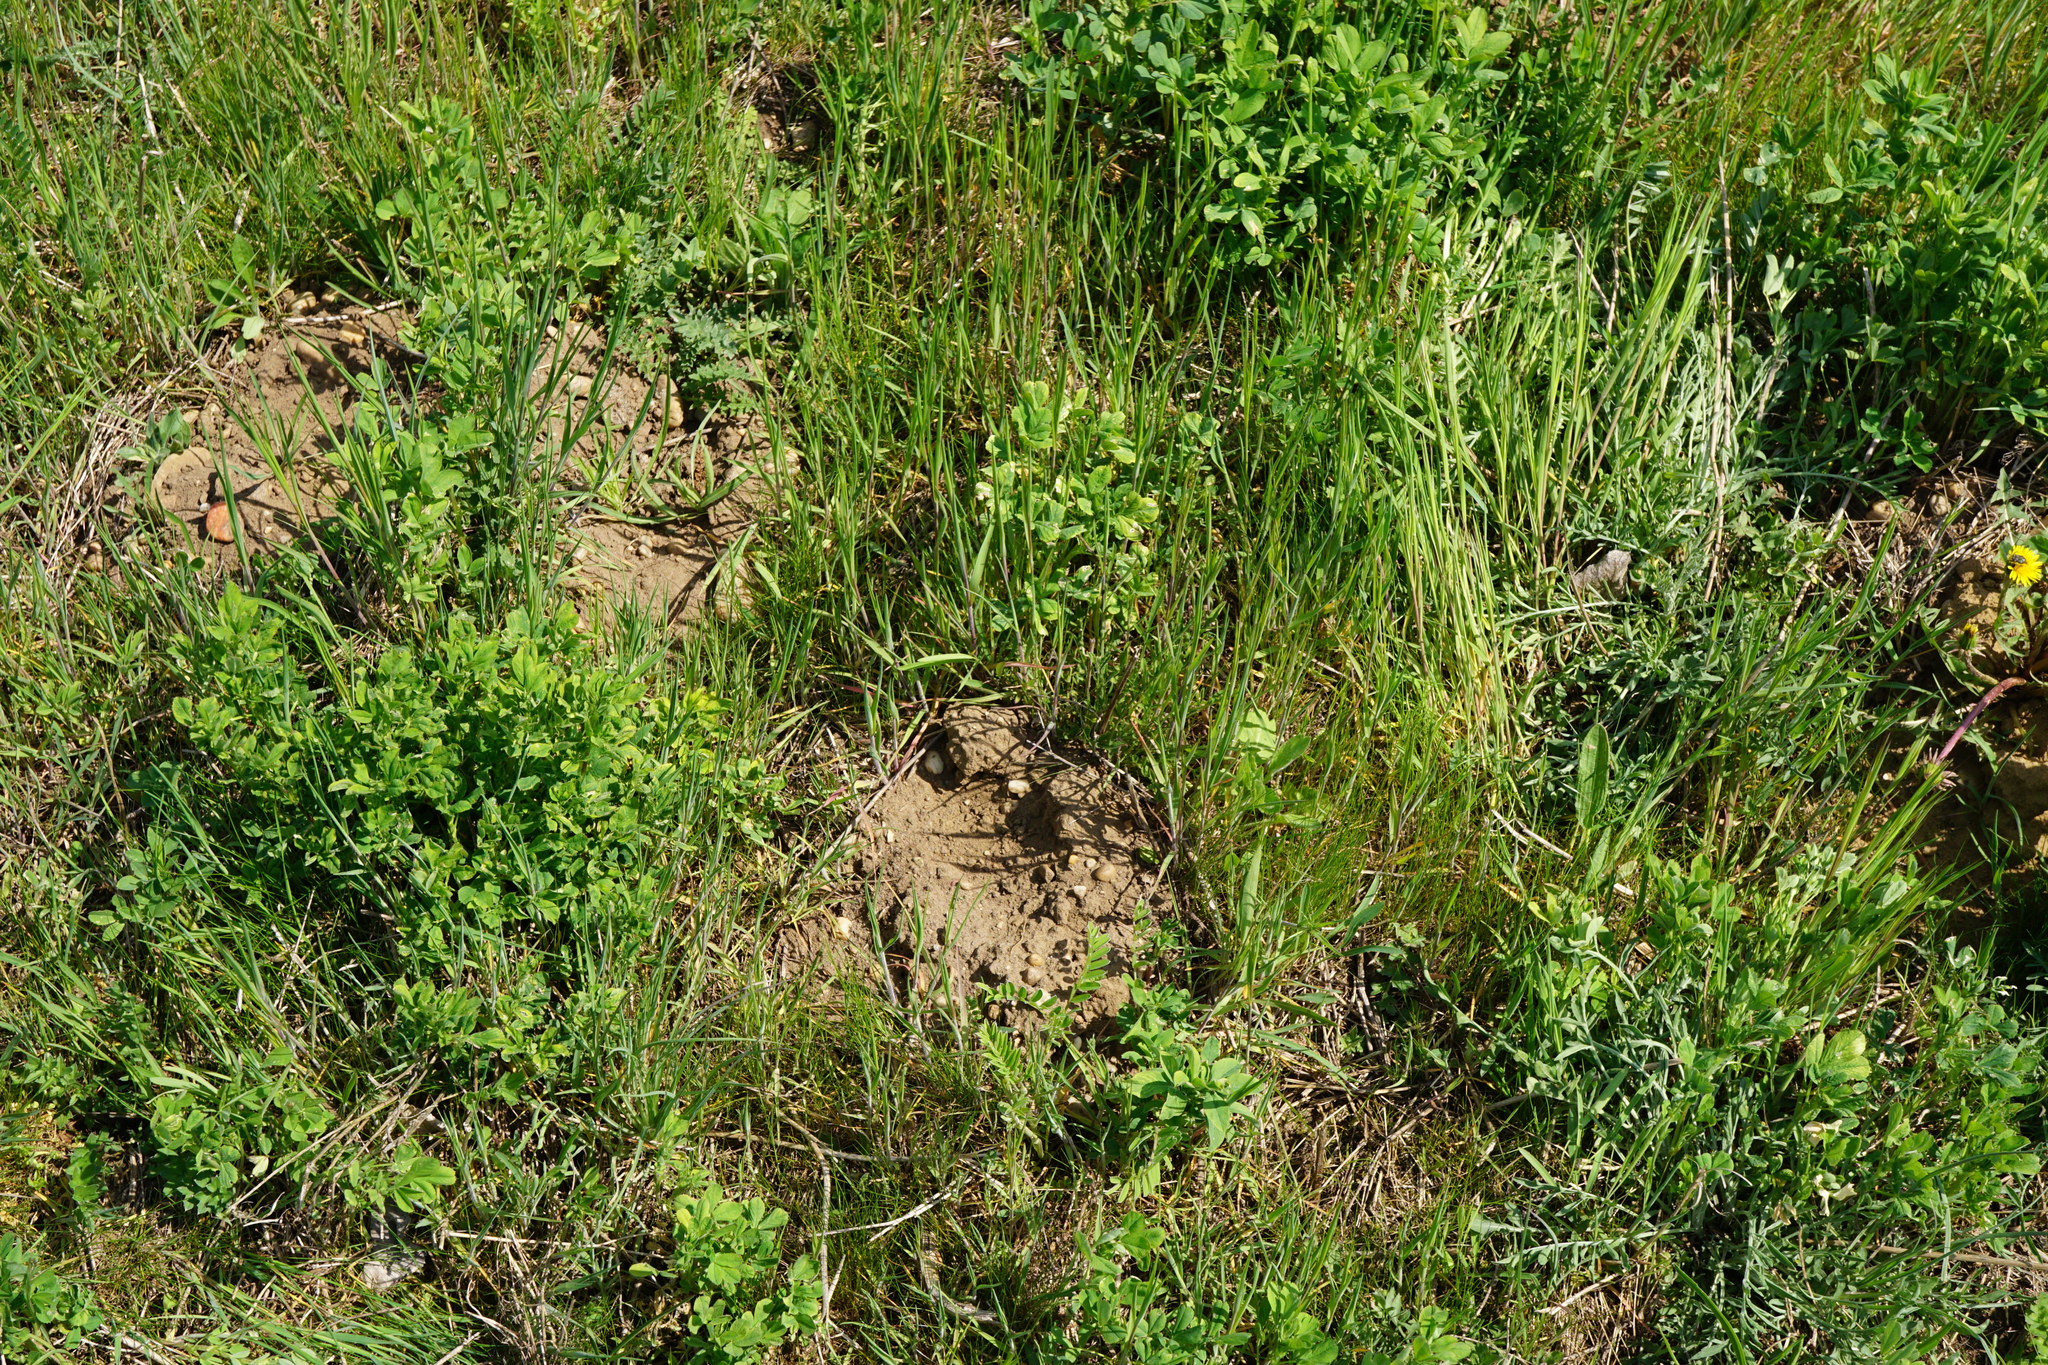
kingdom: Animalia
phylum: Chordata
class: Mammalia
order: Soricomorpha
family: Talpidae
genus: Talpa
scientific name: Talpa europaea
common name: European mole
